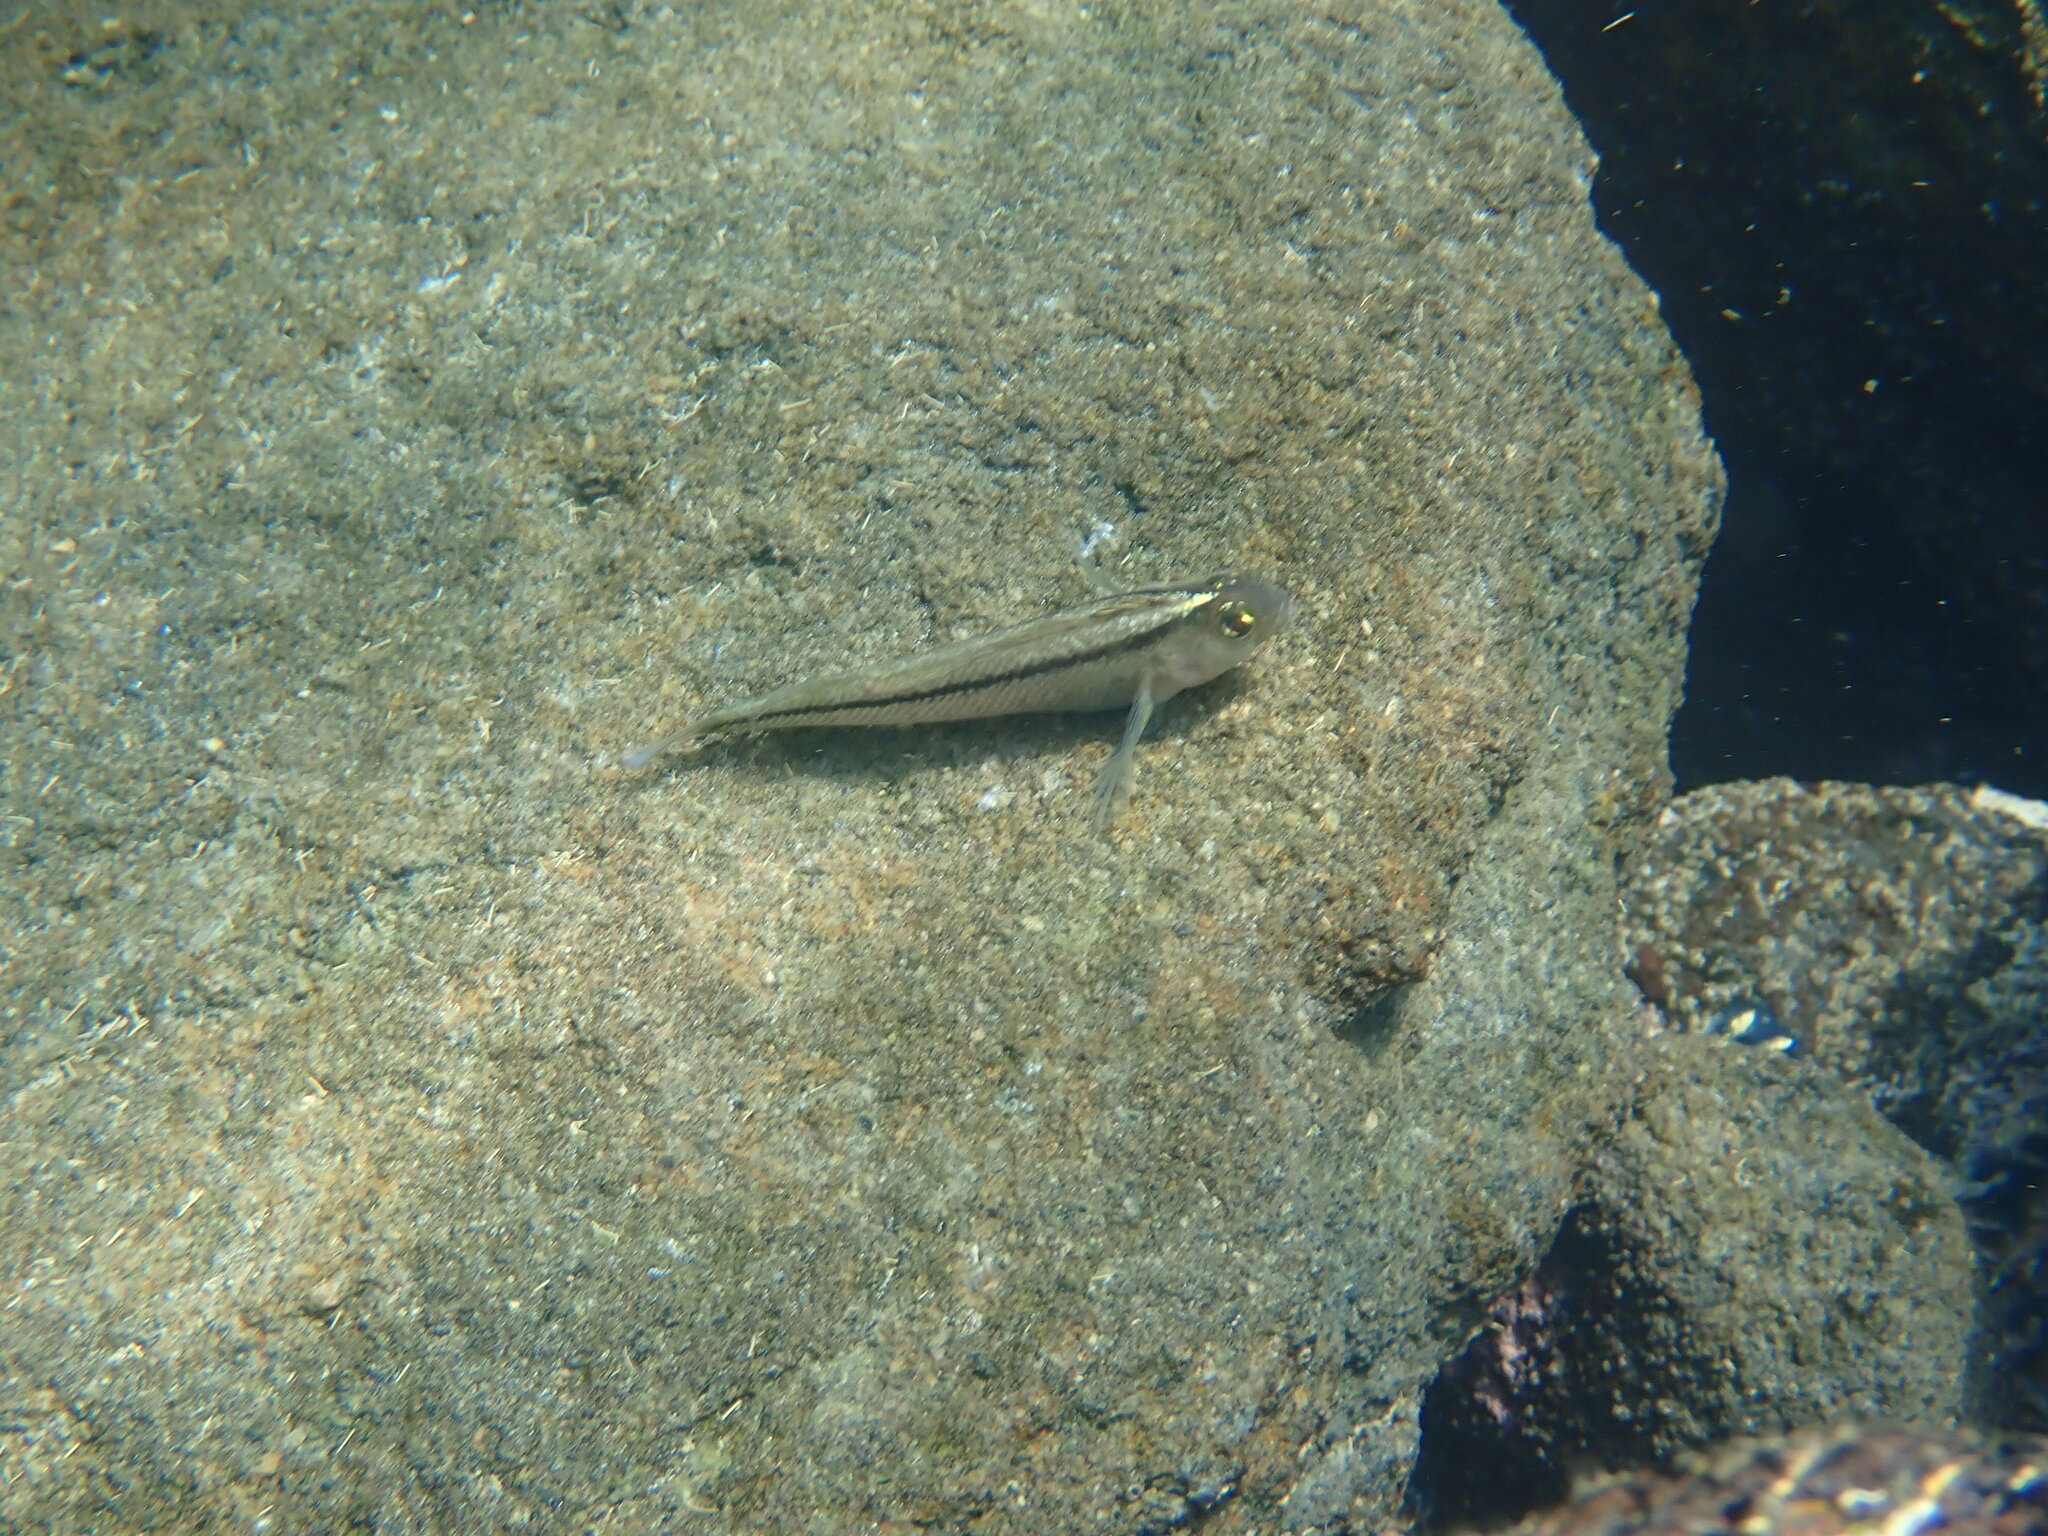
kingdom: Animalia
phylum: Chordata
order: Perciformes
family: Tripterygiidae
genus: Forsterygion
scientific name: Forsterygion lapillum
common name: Common triplefin
